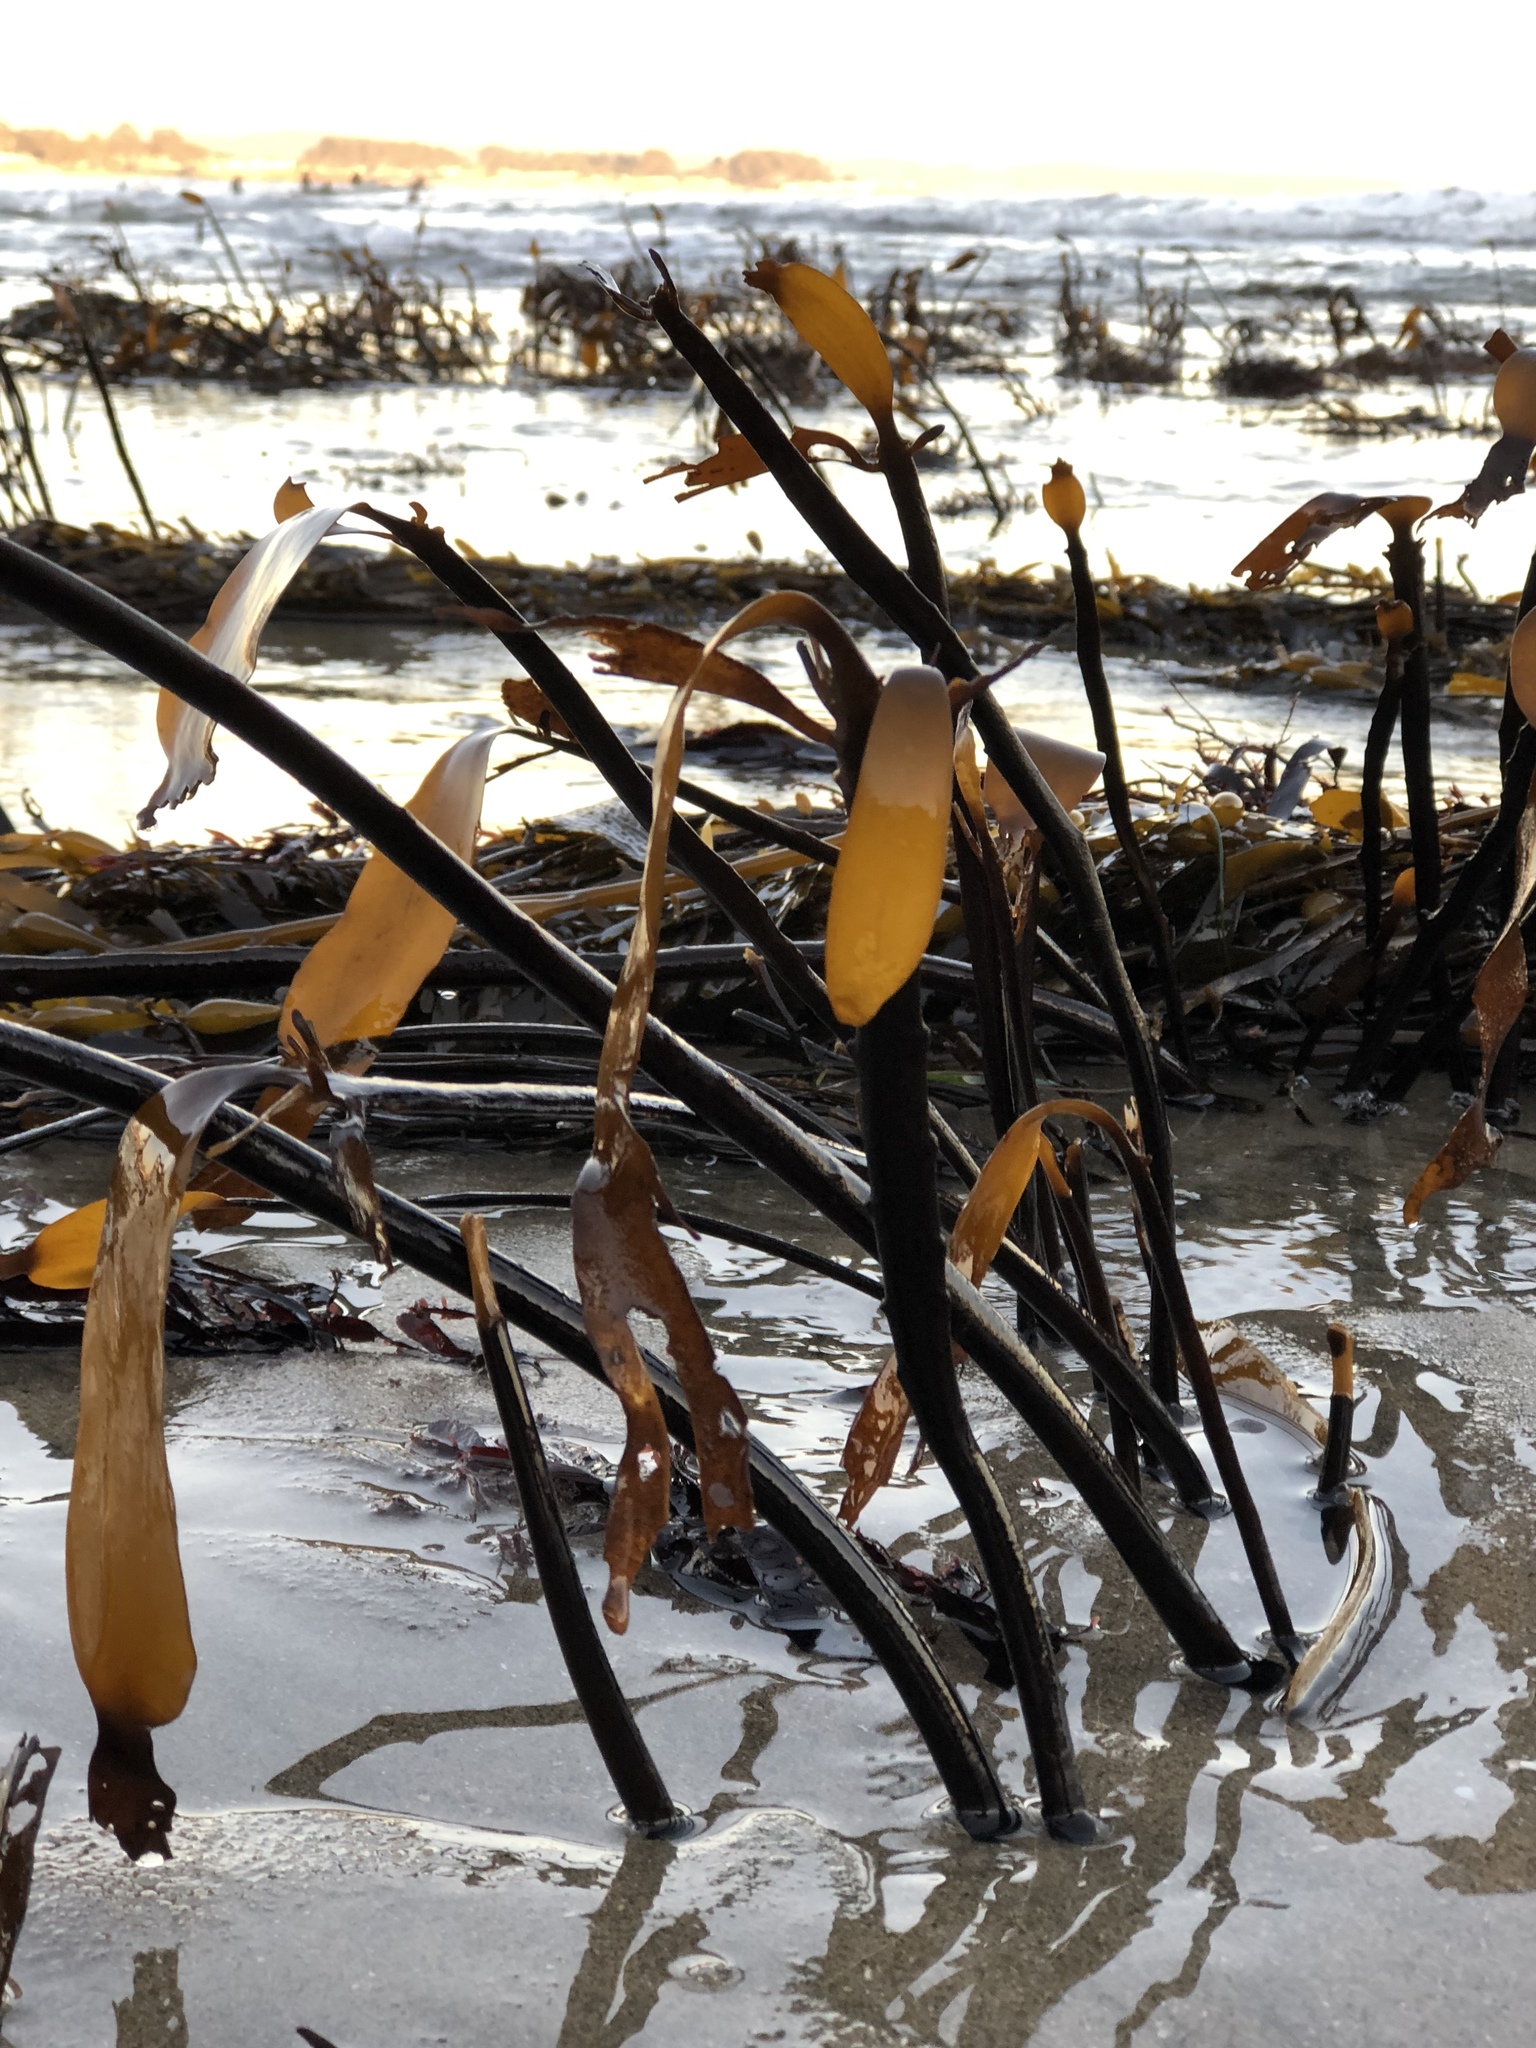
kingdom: Chromista
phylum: Ochrophyta
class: Phaeophyceae
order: Laminariales
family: Alariaceae
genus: Pterygophora
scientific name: Pterygophora californica
